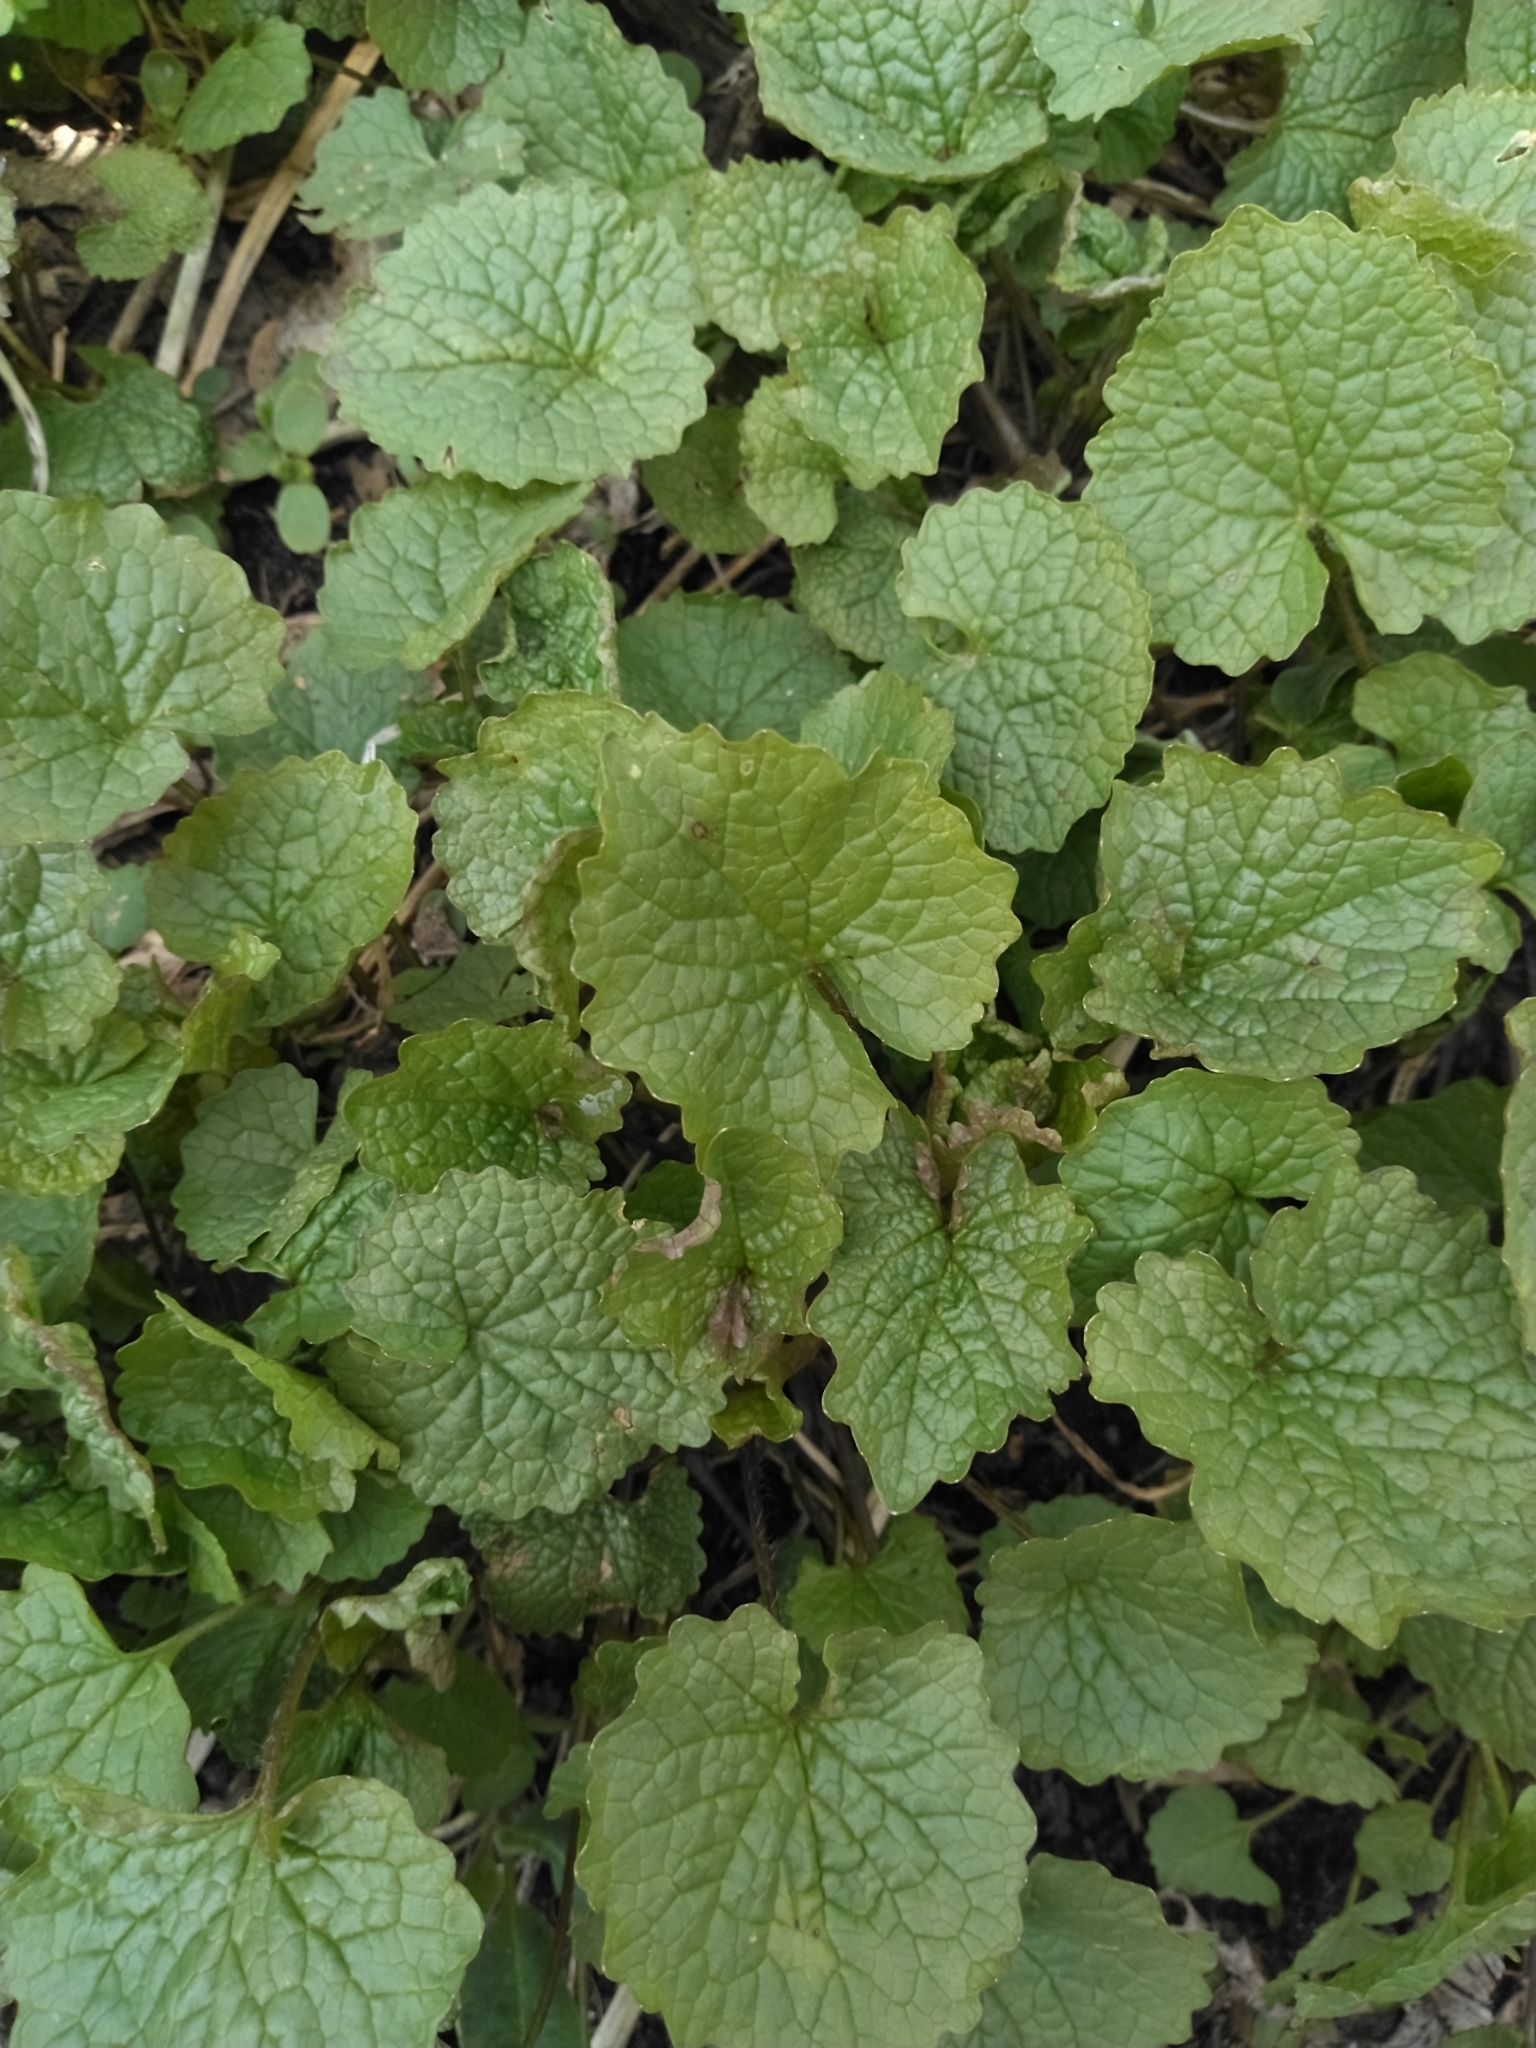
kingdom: Plantae
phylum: Tracheophyta
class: Magnoliopsida
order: Brassicales
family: Brassicaceae
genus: Alliaria
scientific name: Alliaria petiolata
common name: Garlic mustard
